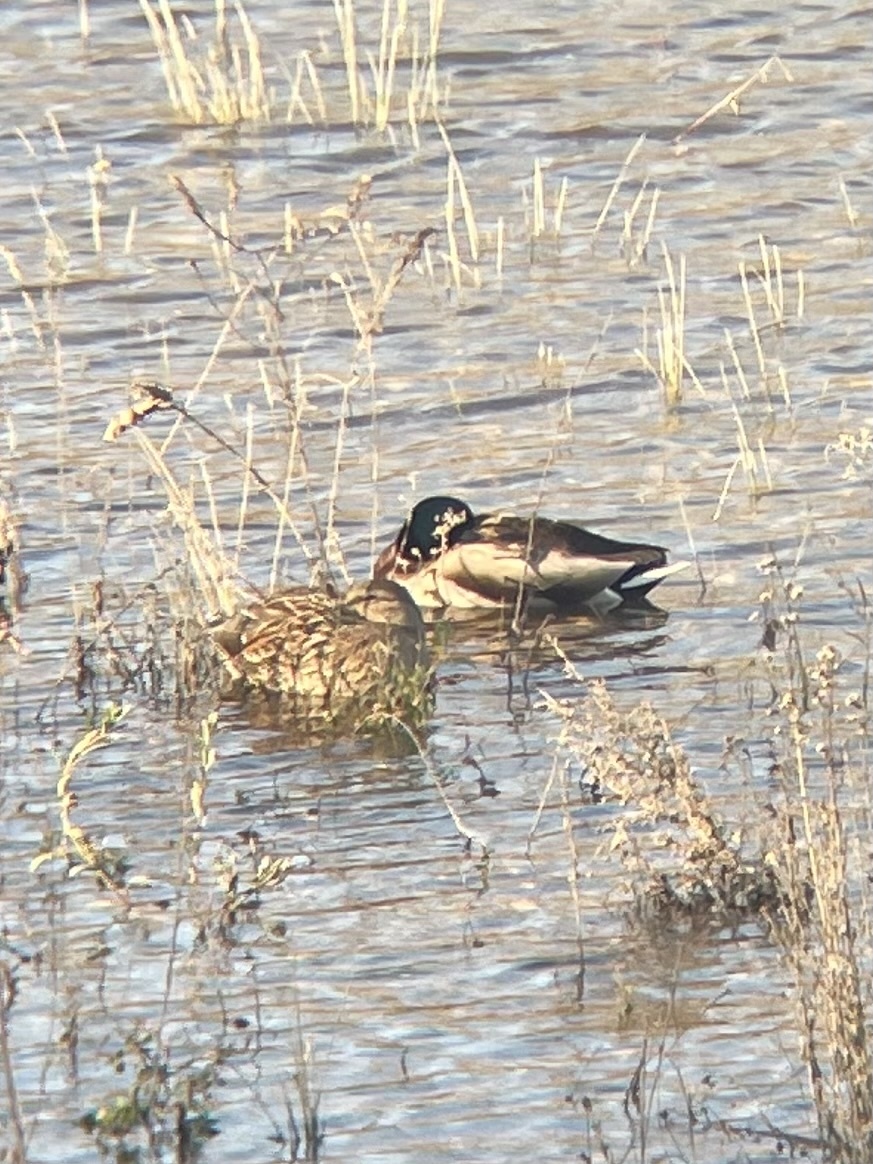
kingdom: Animalia
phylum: Chordata
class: Aves
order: Anseriformes
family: Anatidae
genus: Anas
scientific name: Anas platyrhynchos
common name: Mallard
